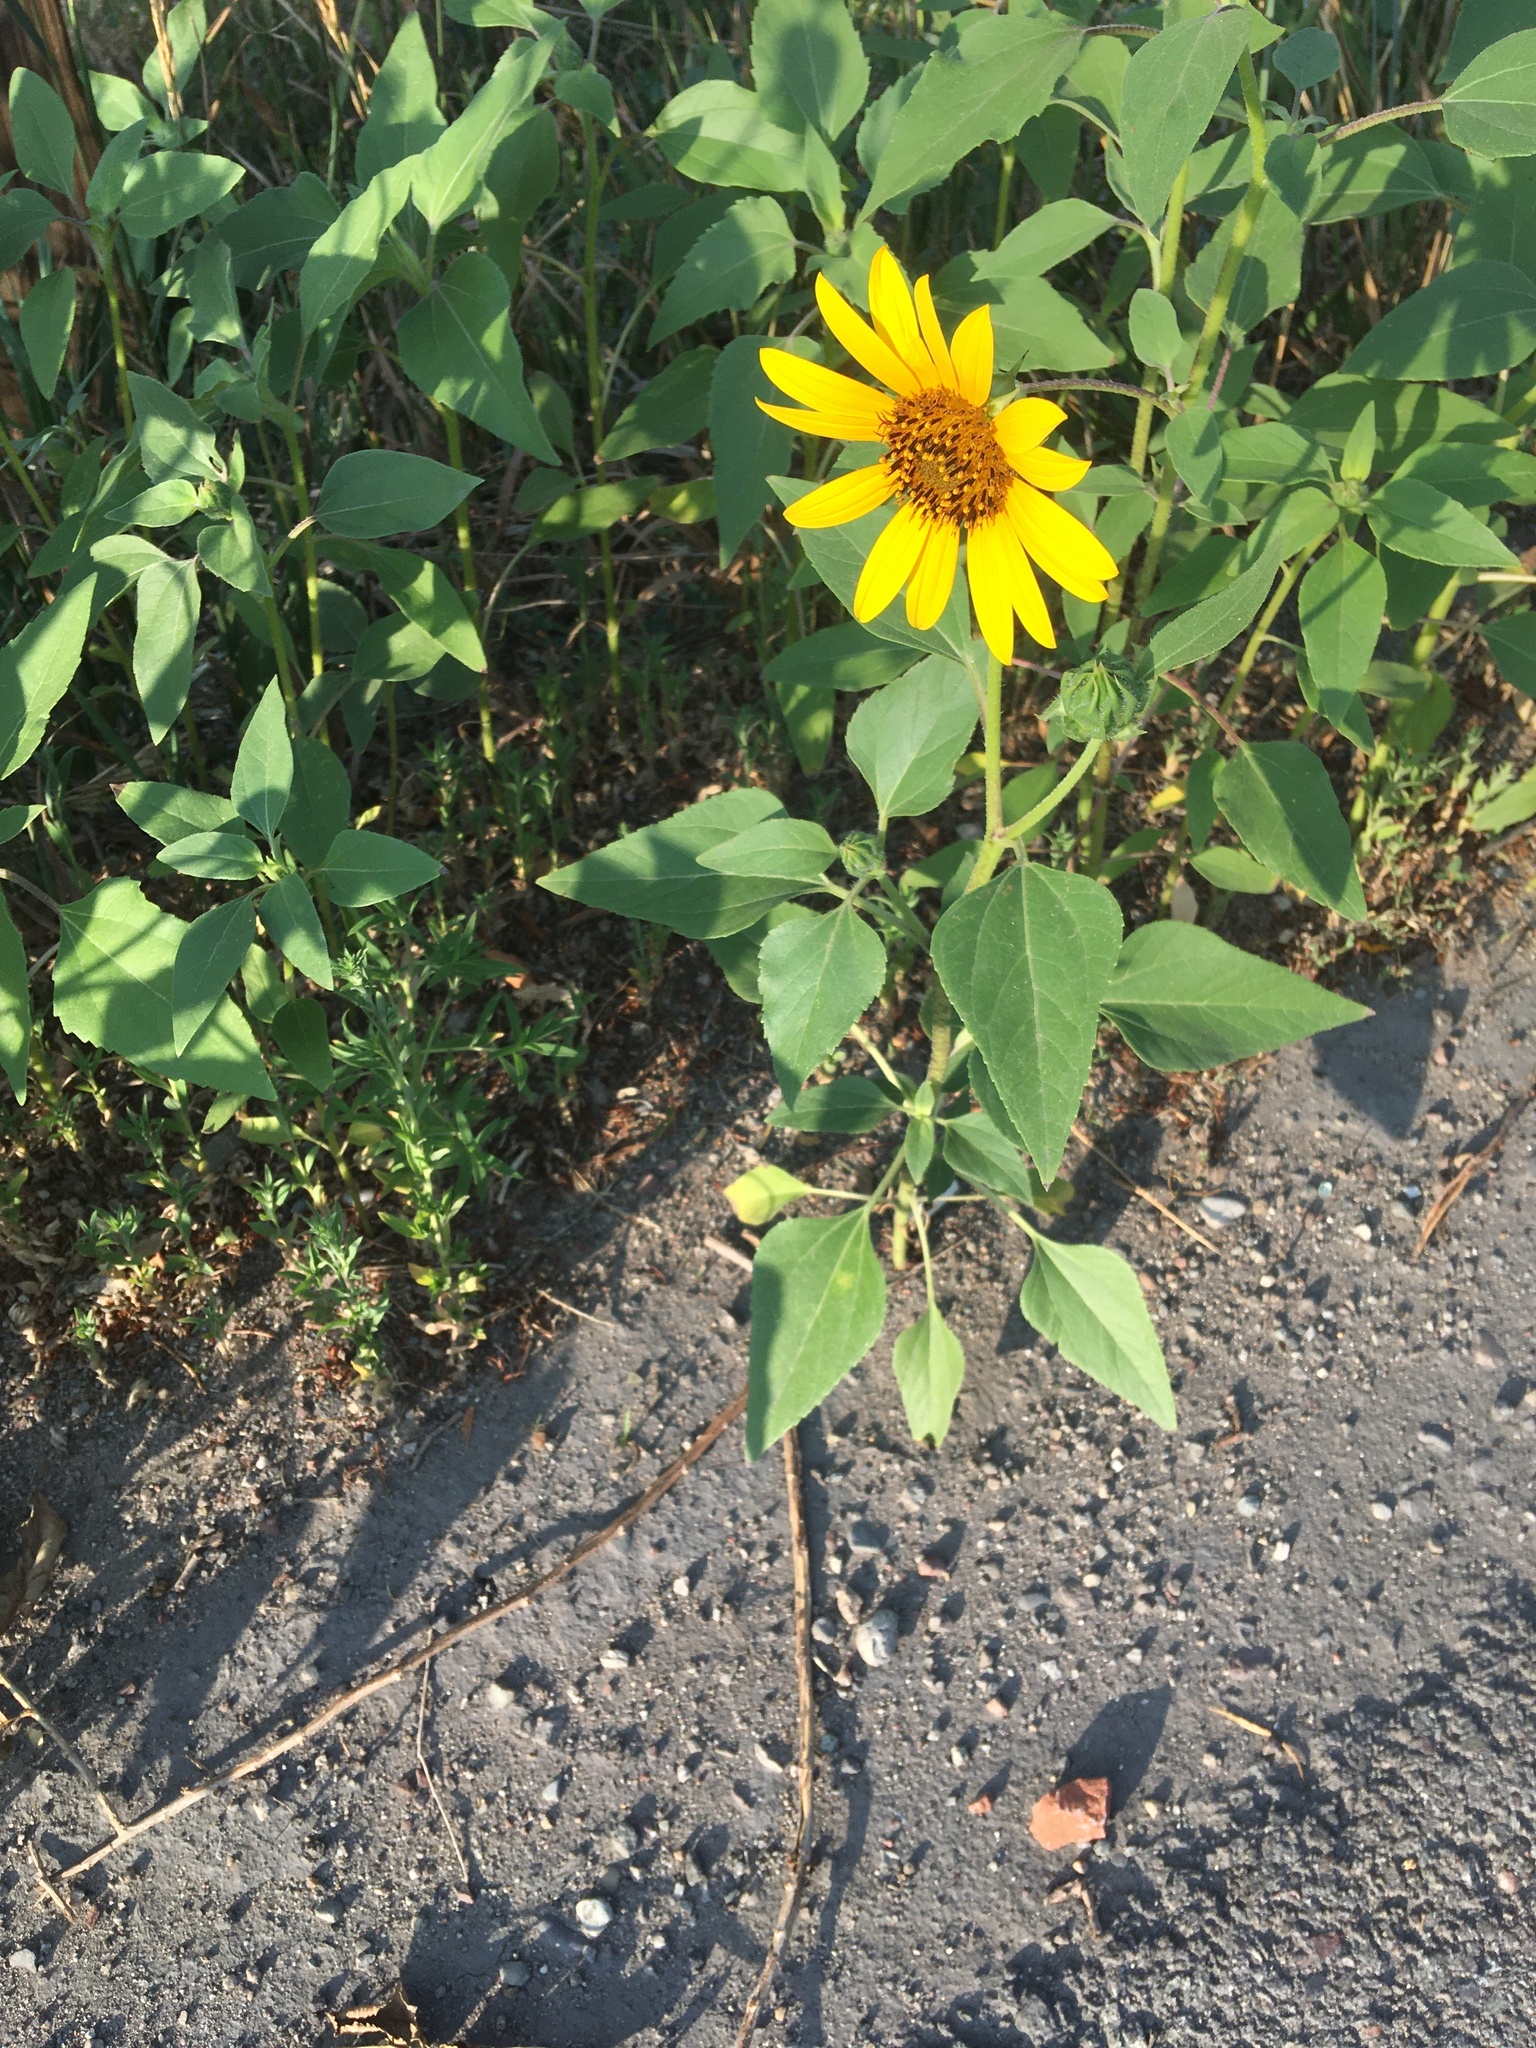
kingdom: Plantae
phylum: Tracheophyta
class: Magnoliopsida
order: Asterales
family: Asteraceae
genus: Helianthus
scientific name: Helianthus annuus
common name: Sunflower
